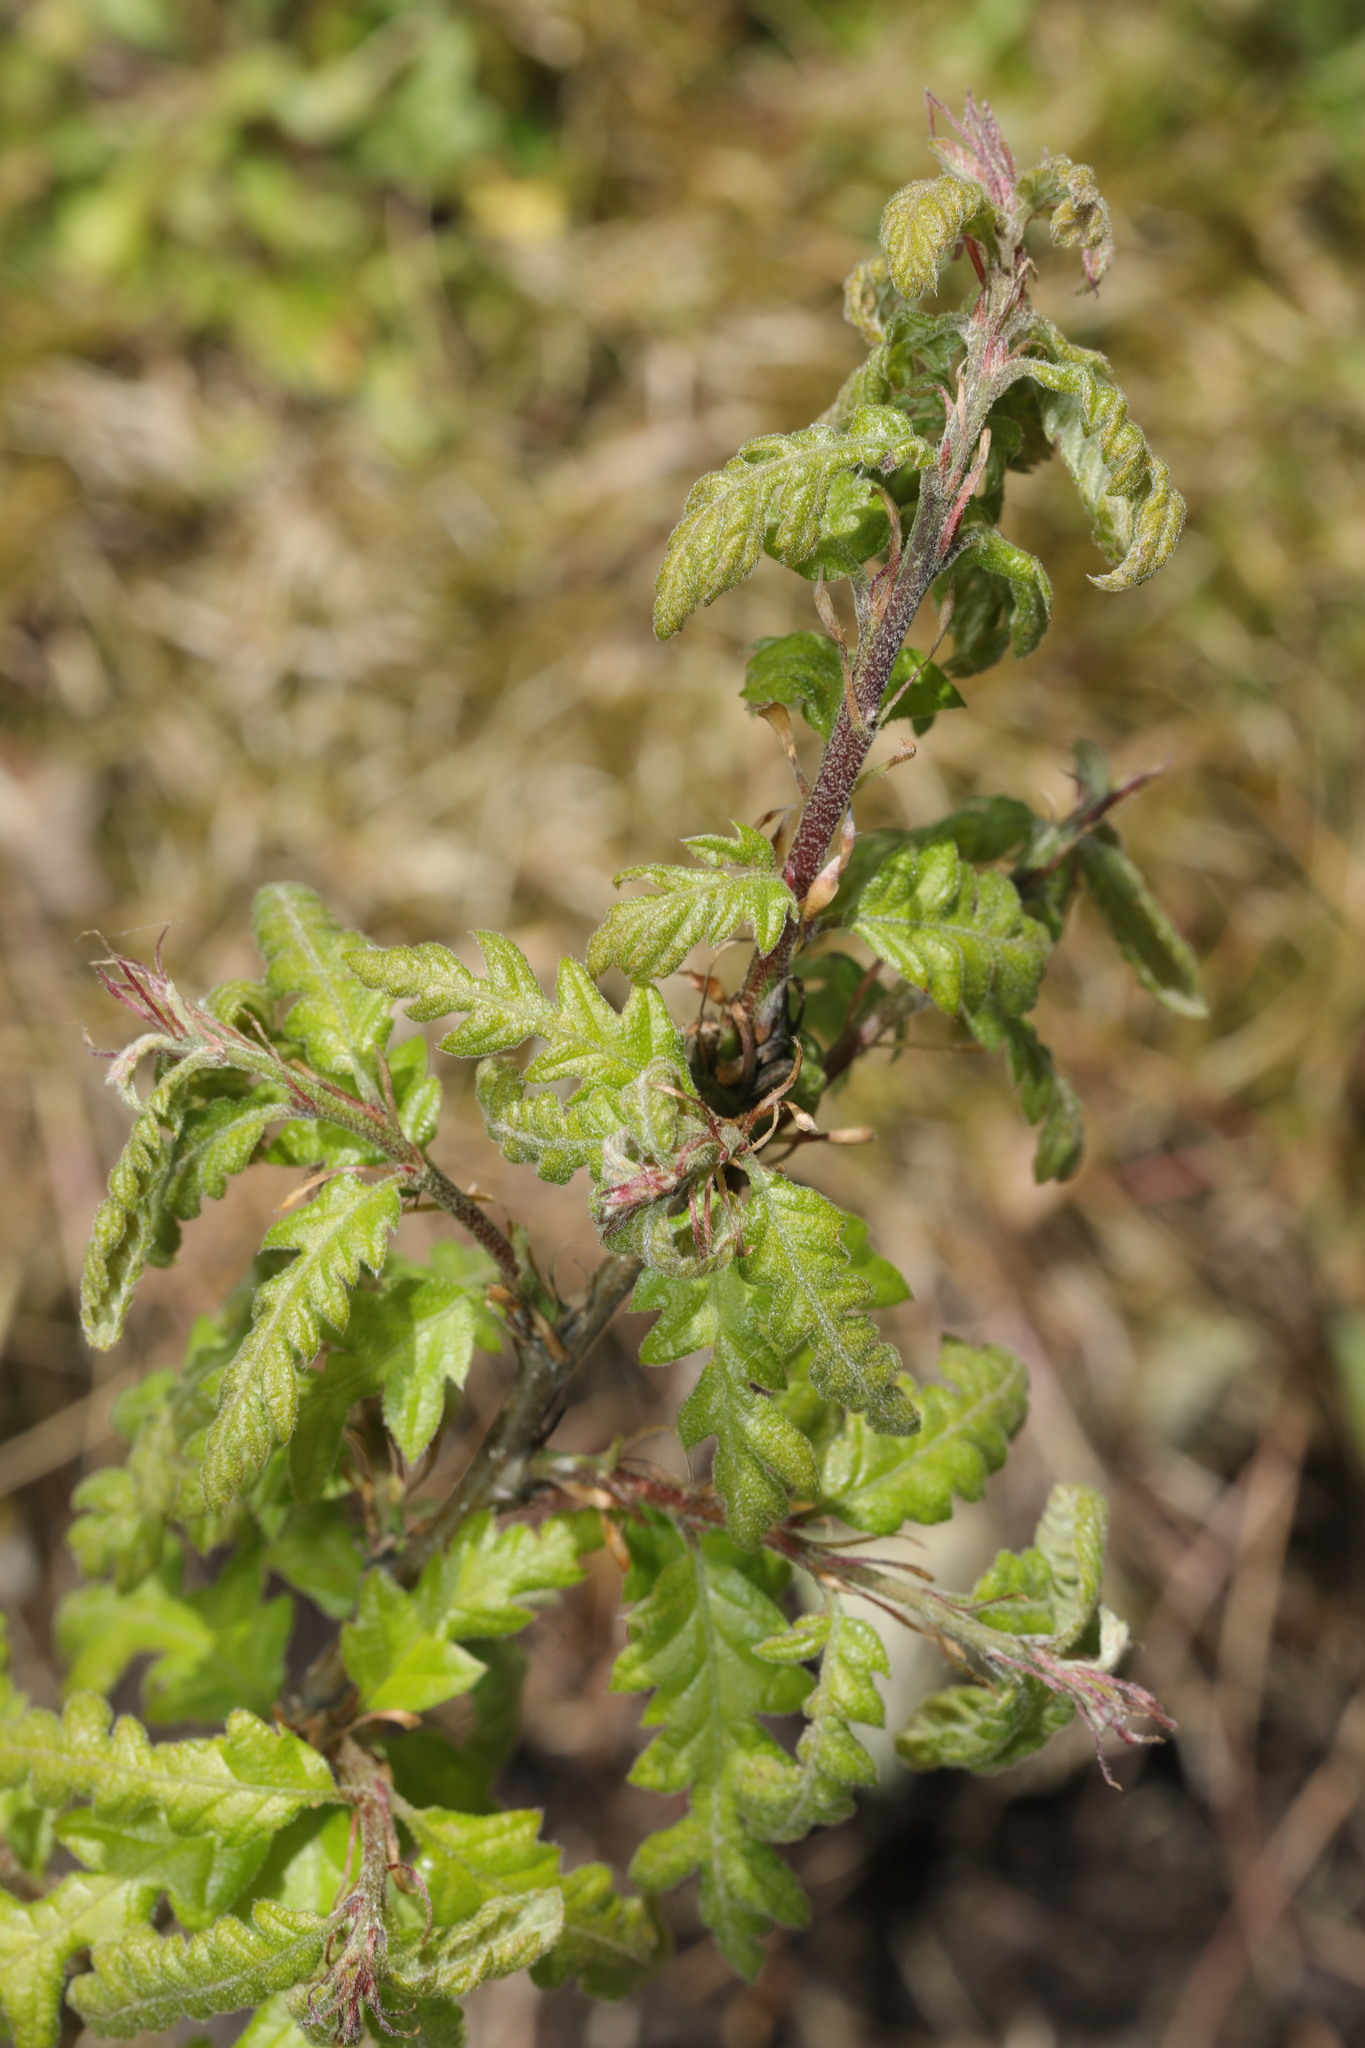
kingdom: Plantae
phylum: Tracheophyta
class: Magnoliopsida
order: Fagales
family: Fagaceae
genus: Quercus
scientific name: Quercus cerris
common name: Turkey oak
